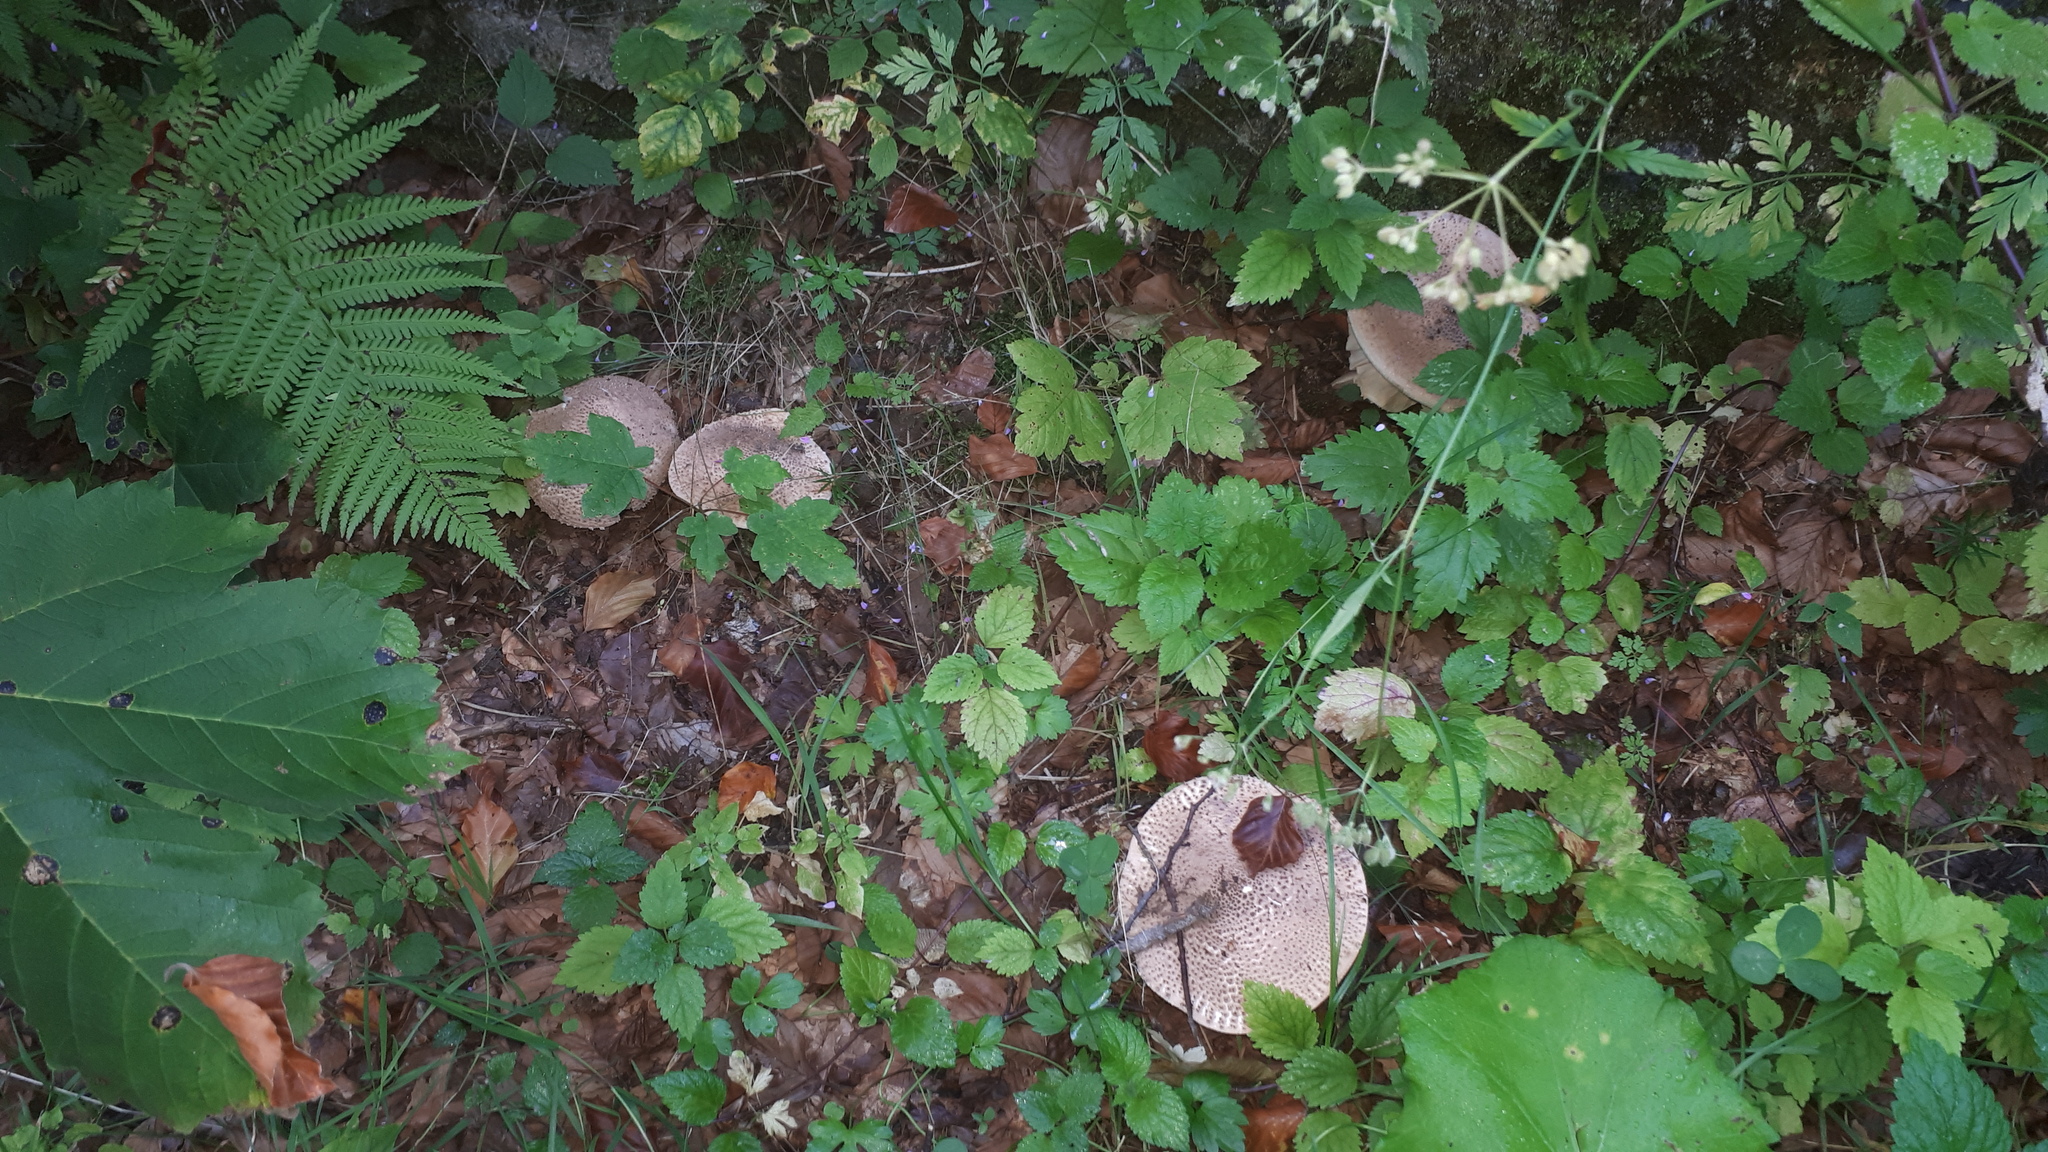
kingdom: Fungi
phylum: Basidiomycota
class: Agaricomycetes
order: Agaricales
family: Agaricaceae
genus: Echinoderma
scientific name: Echinoderma asperum
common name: Freckled dapperling
